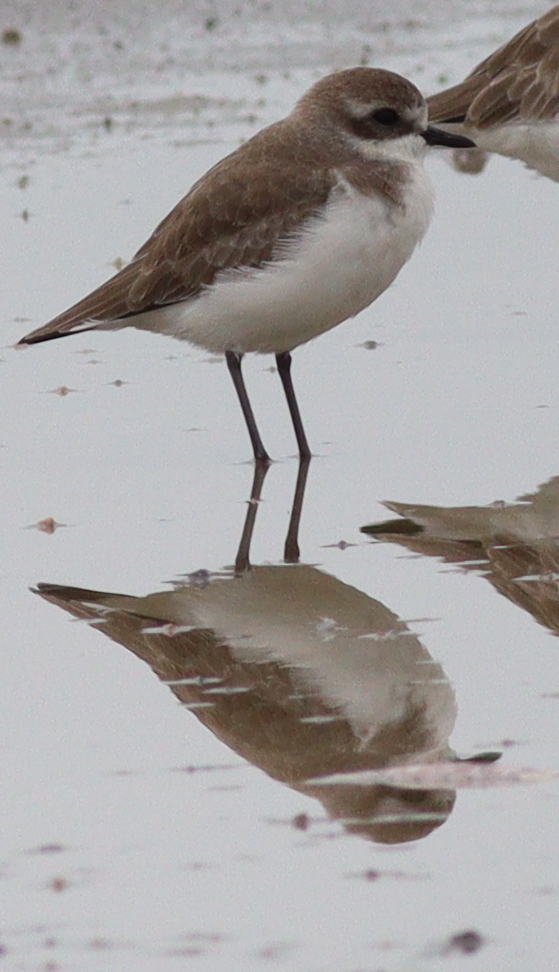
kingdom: Animalia
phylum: Chordata
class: Aves
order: Charadriiformes
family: Charadriidae
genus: Anarhynchus
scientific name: Anarhynchus
